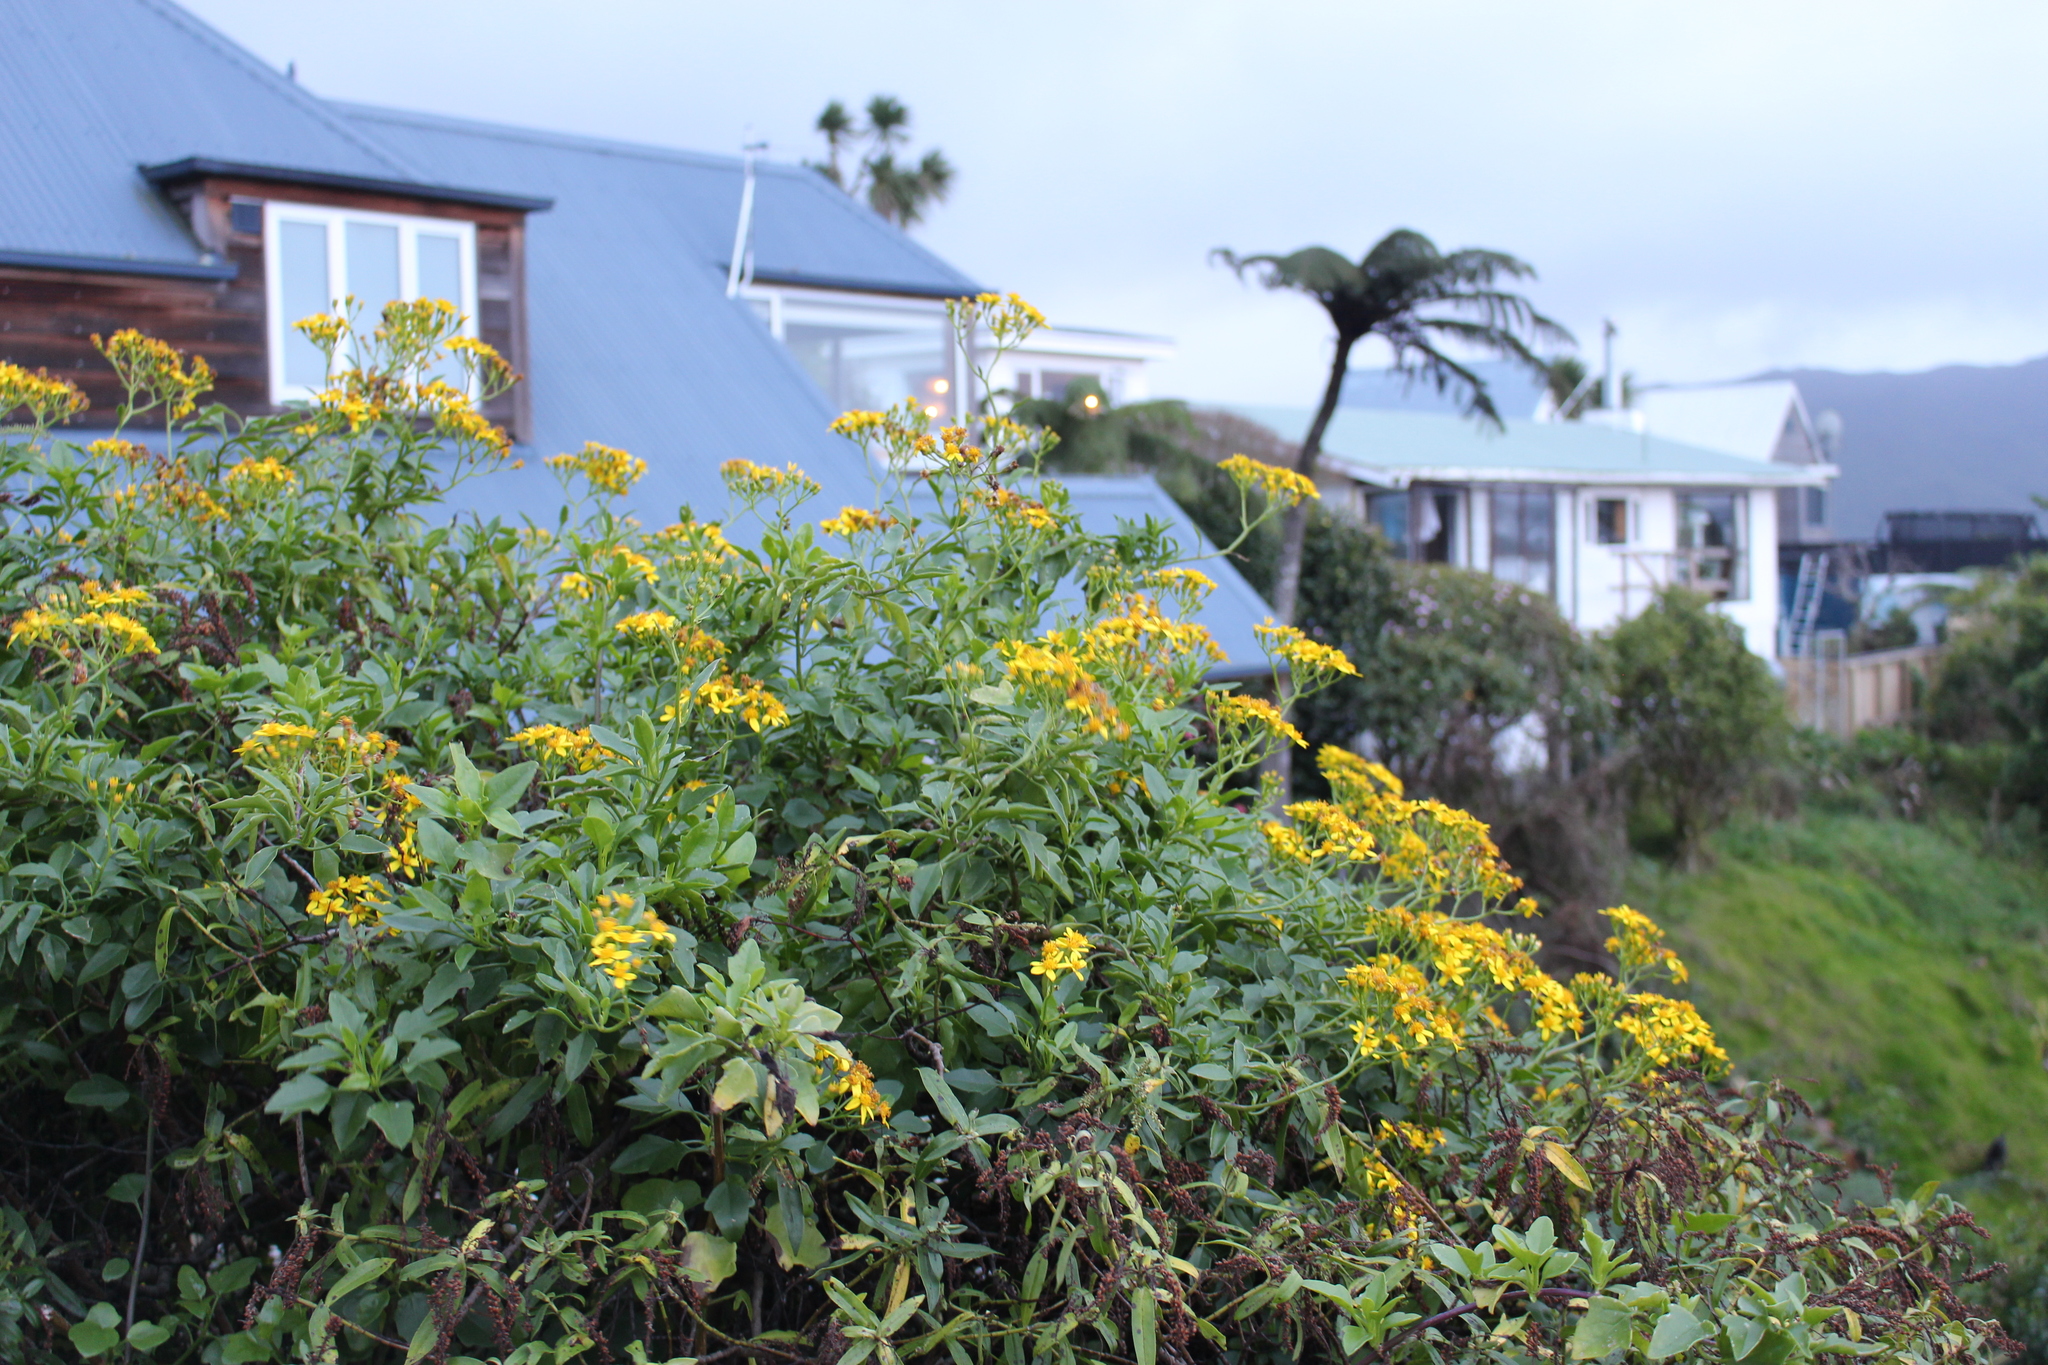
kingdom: Plantae
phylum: Tracheophyta
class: Magnoliopsida
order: Asterales
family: Asteraceae
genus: Senecio
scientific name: Senecio angulatus
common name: Climbing groundsel
